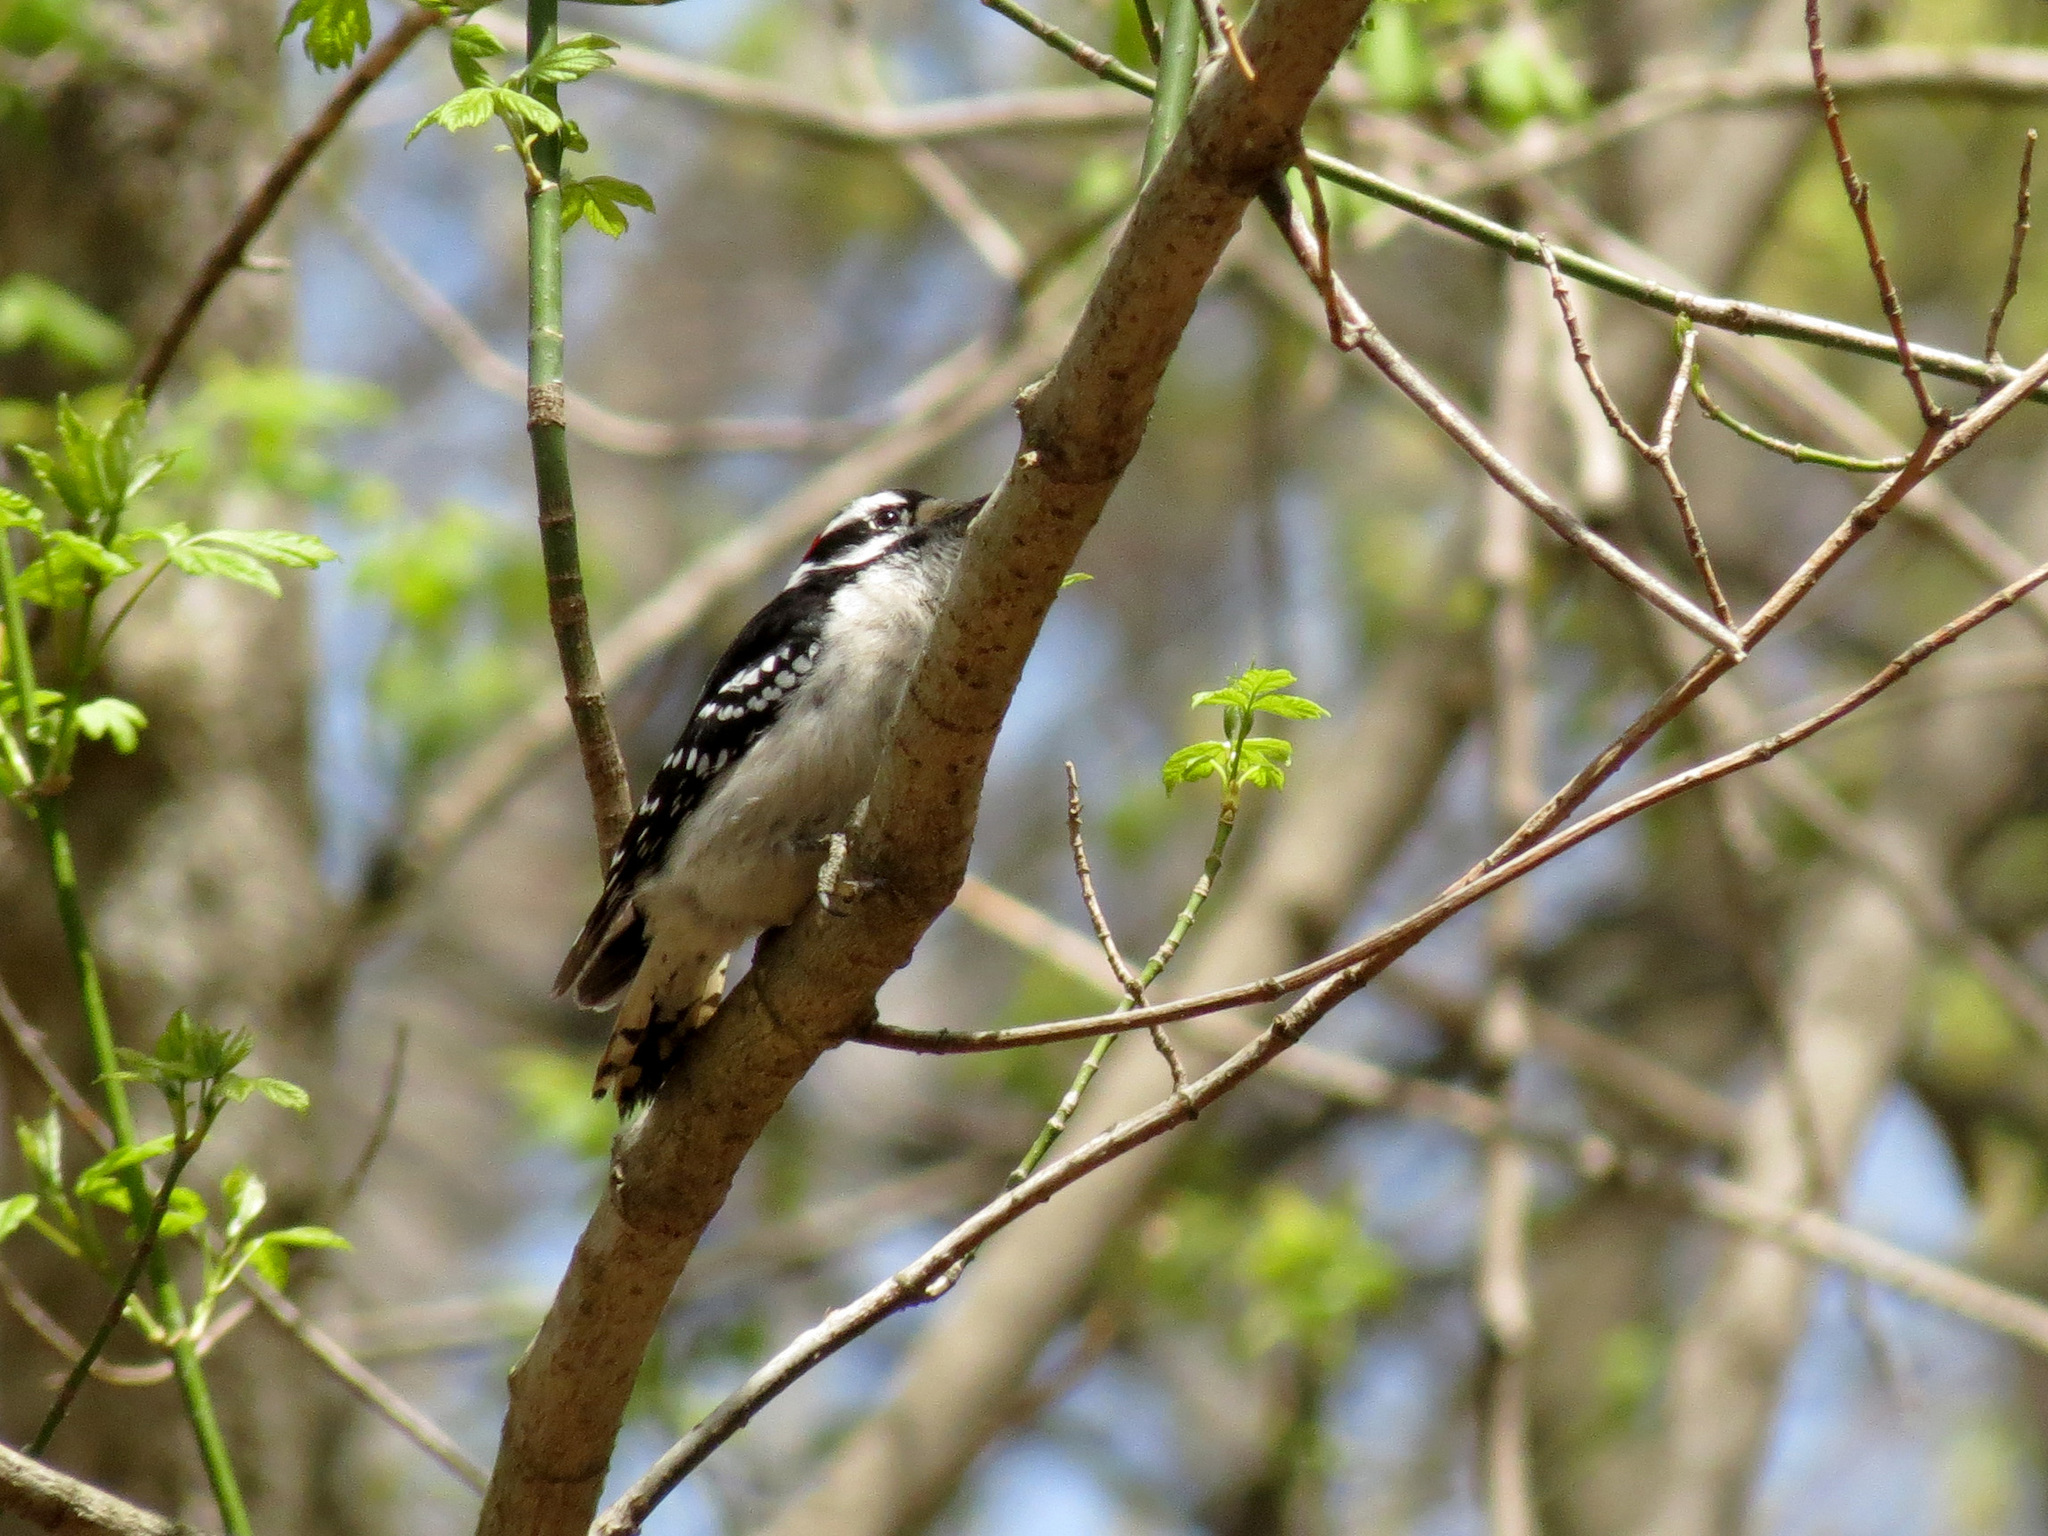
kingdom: Animalia
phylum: Chordata
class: Aves
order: Piciformes
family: Picidae
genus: Dryobates
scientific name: Dryobates pubescens
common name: Downy woodpecker
